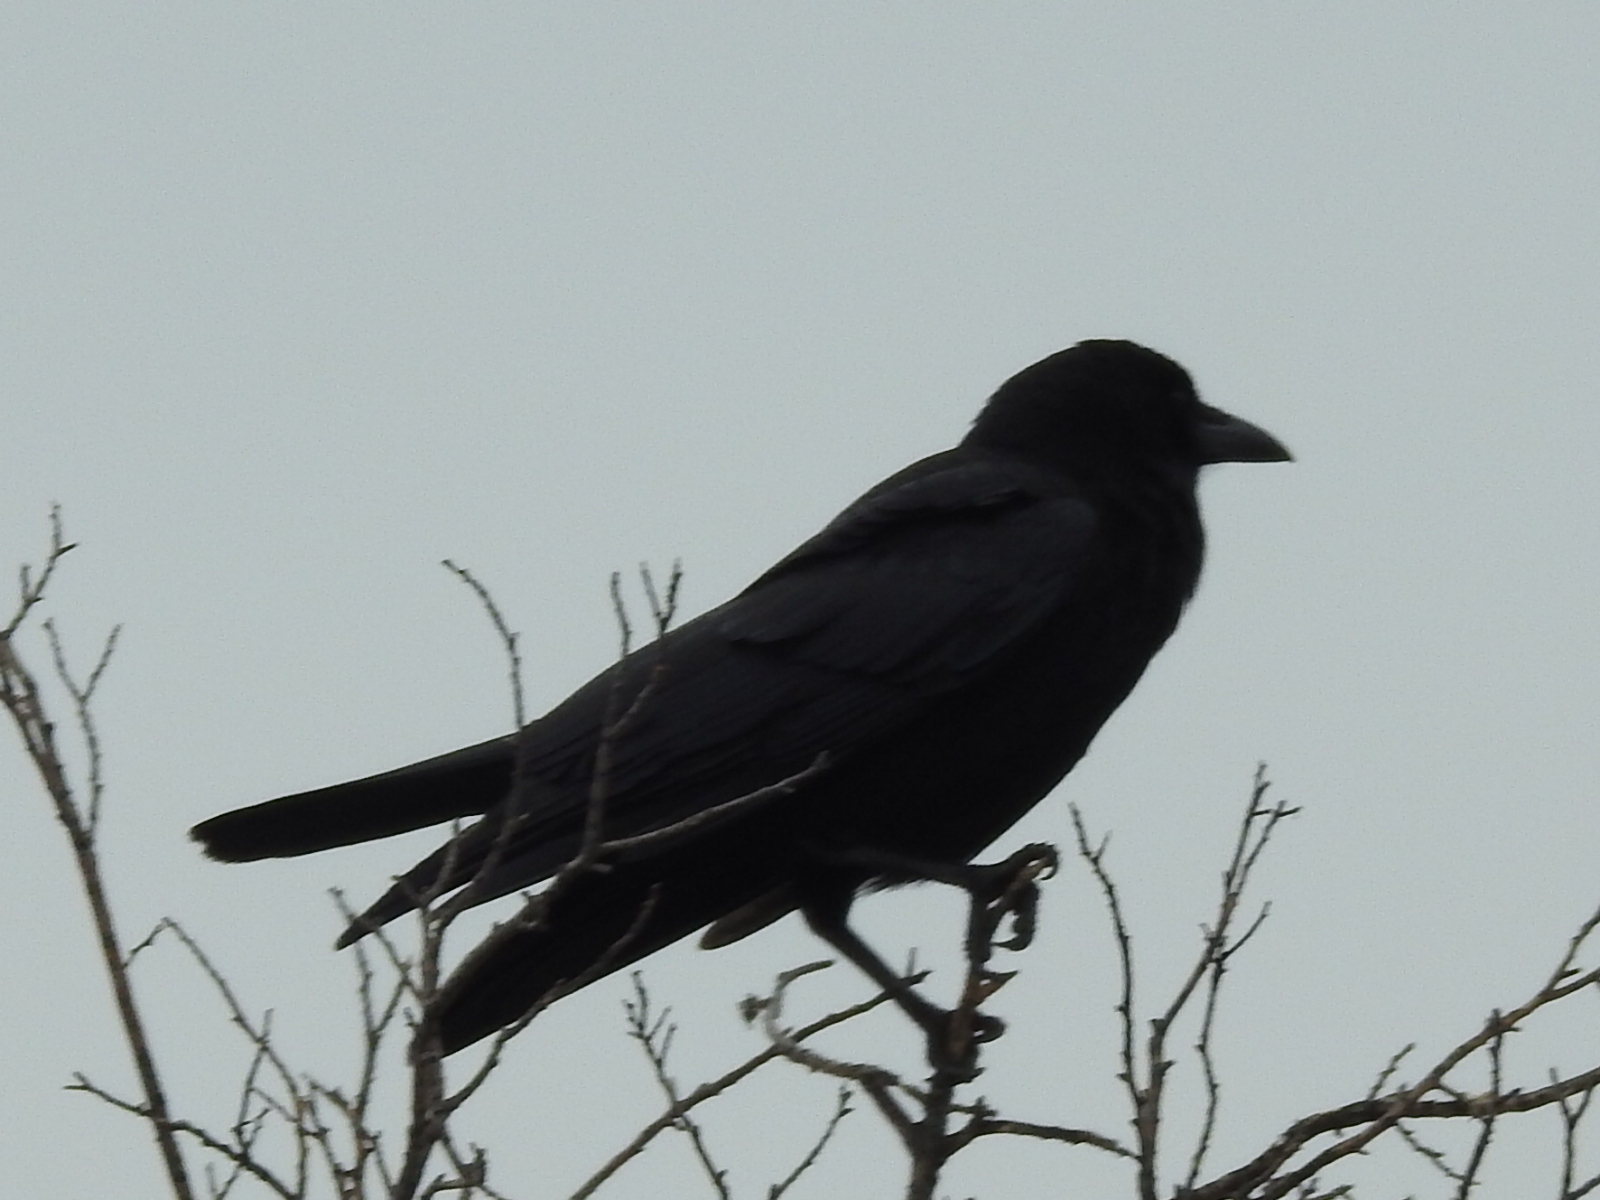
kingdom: Animalia
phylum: Chordata
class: Aves
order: Passeriformes
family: Corvidae
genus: Corvus
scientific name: Corvus brachyrhynchos
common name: American crow
